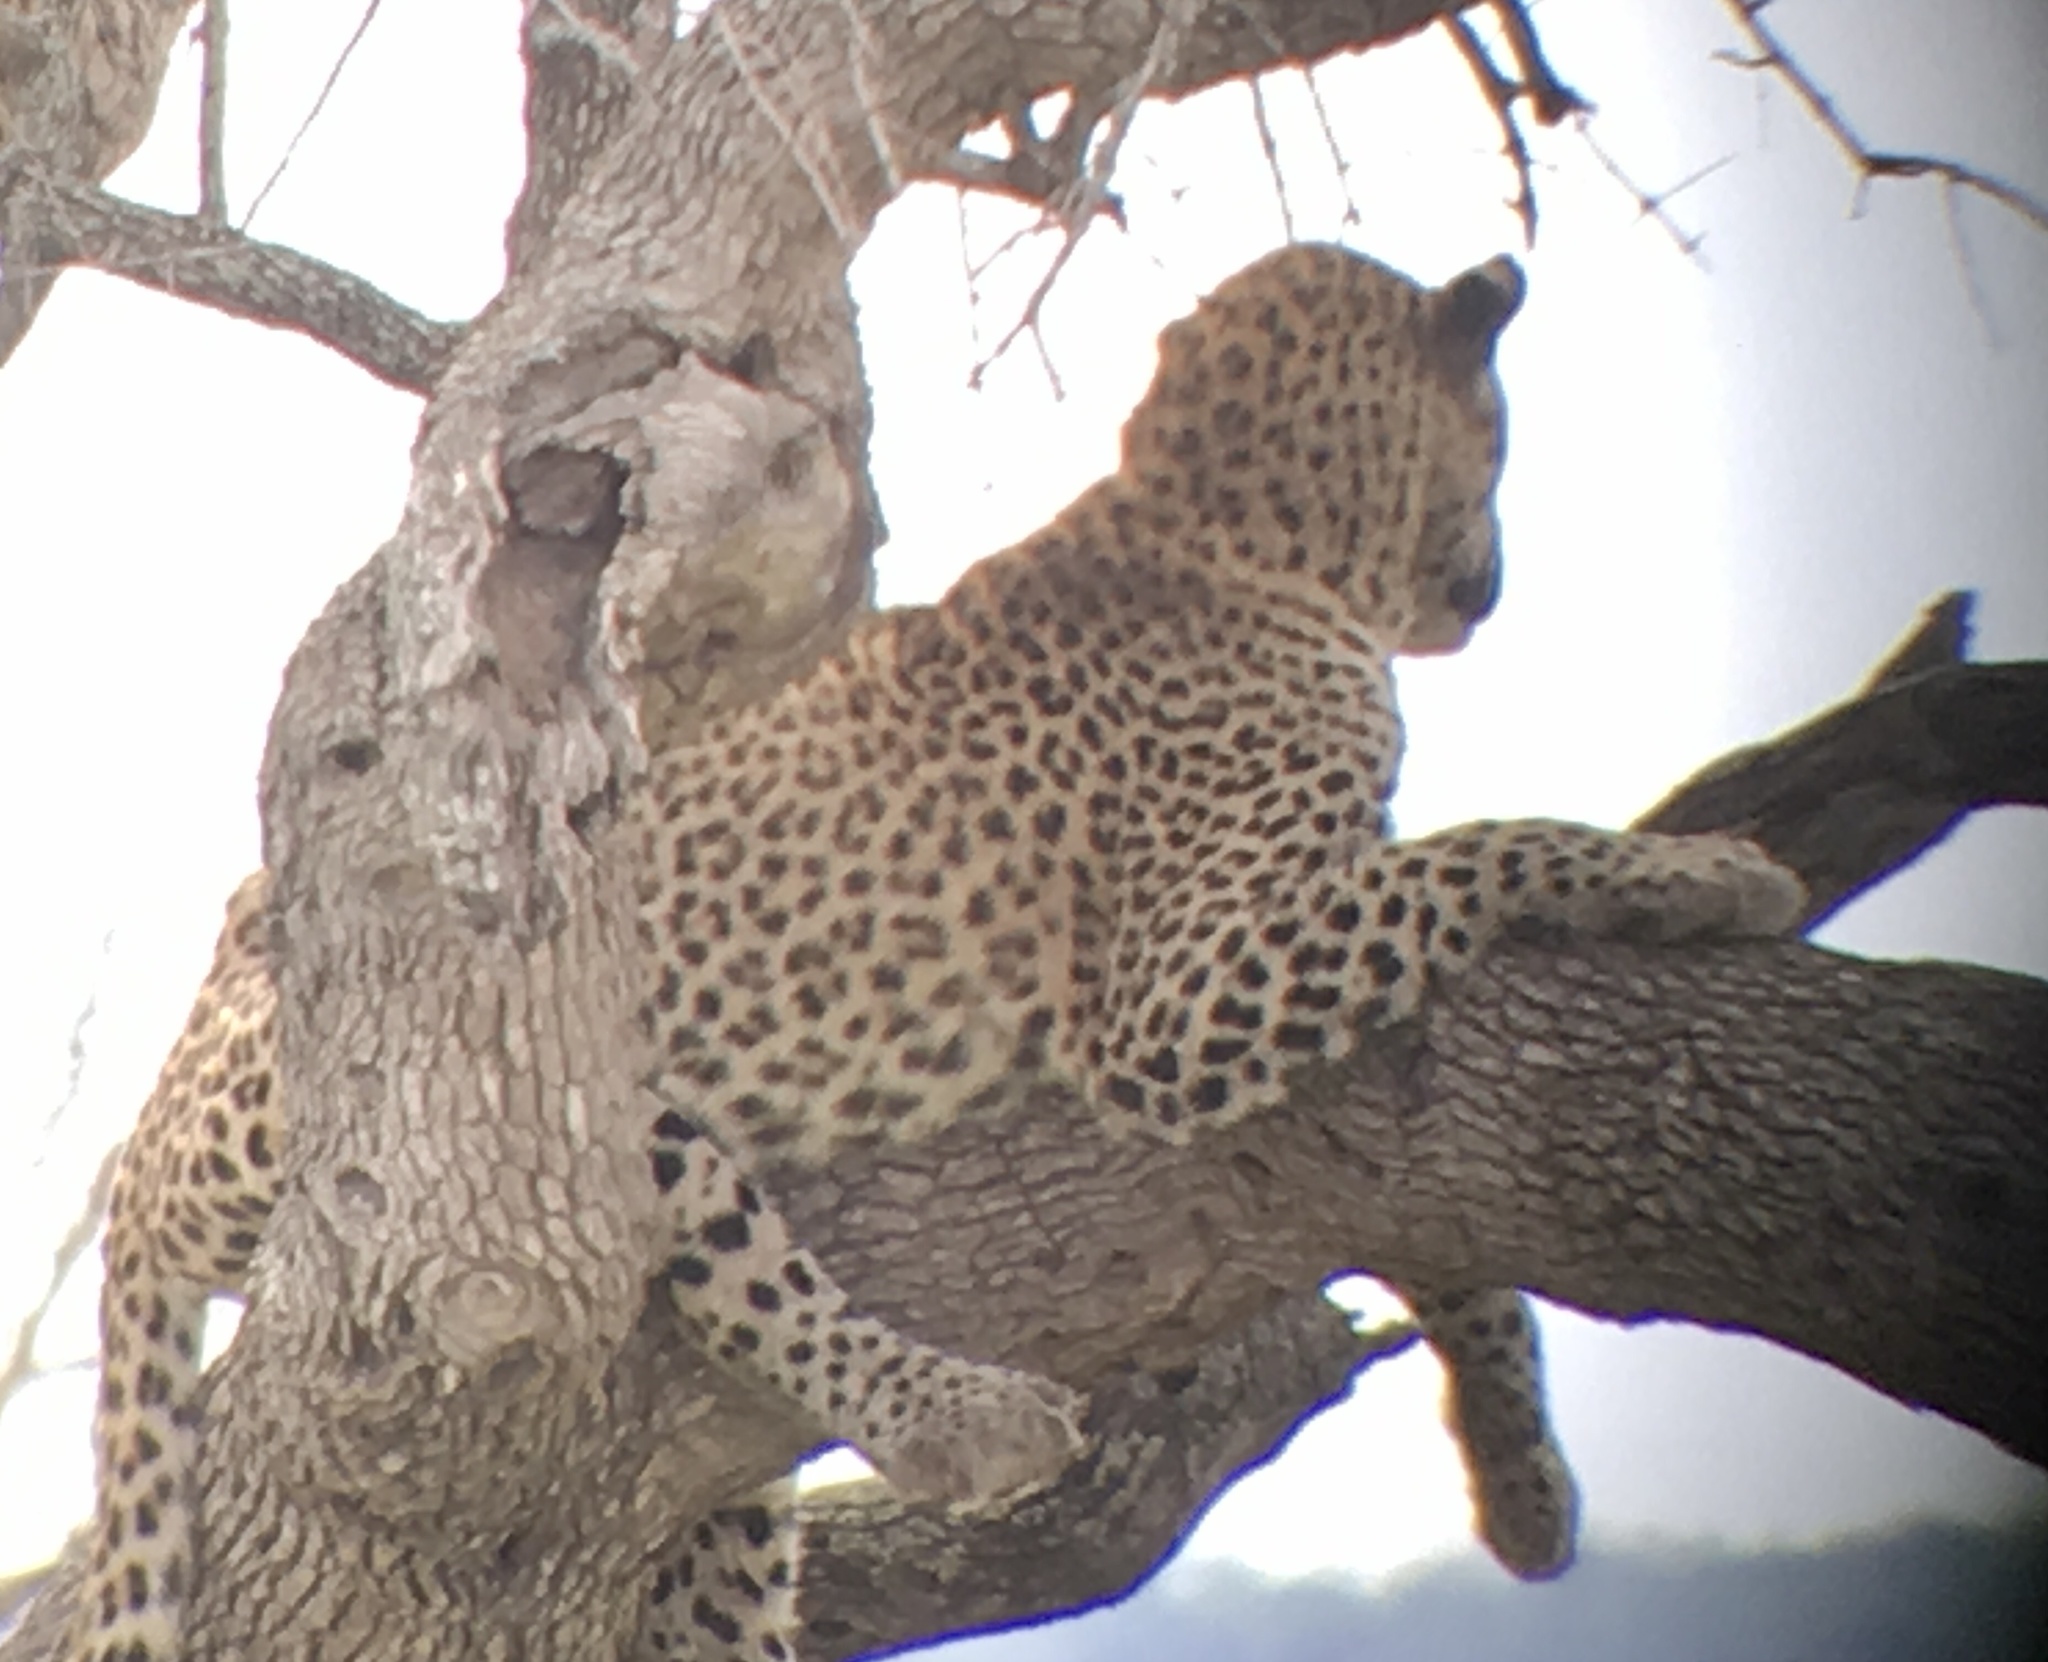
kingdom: Animalia
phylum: Chordata
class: Mammalia
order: Carnivora
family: Felidae
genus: Panthera
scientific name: Panthera pardus
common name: Leopard
